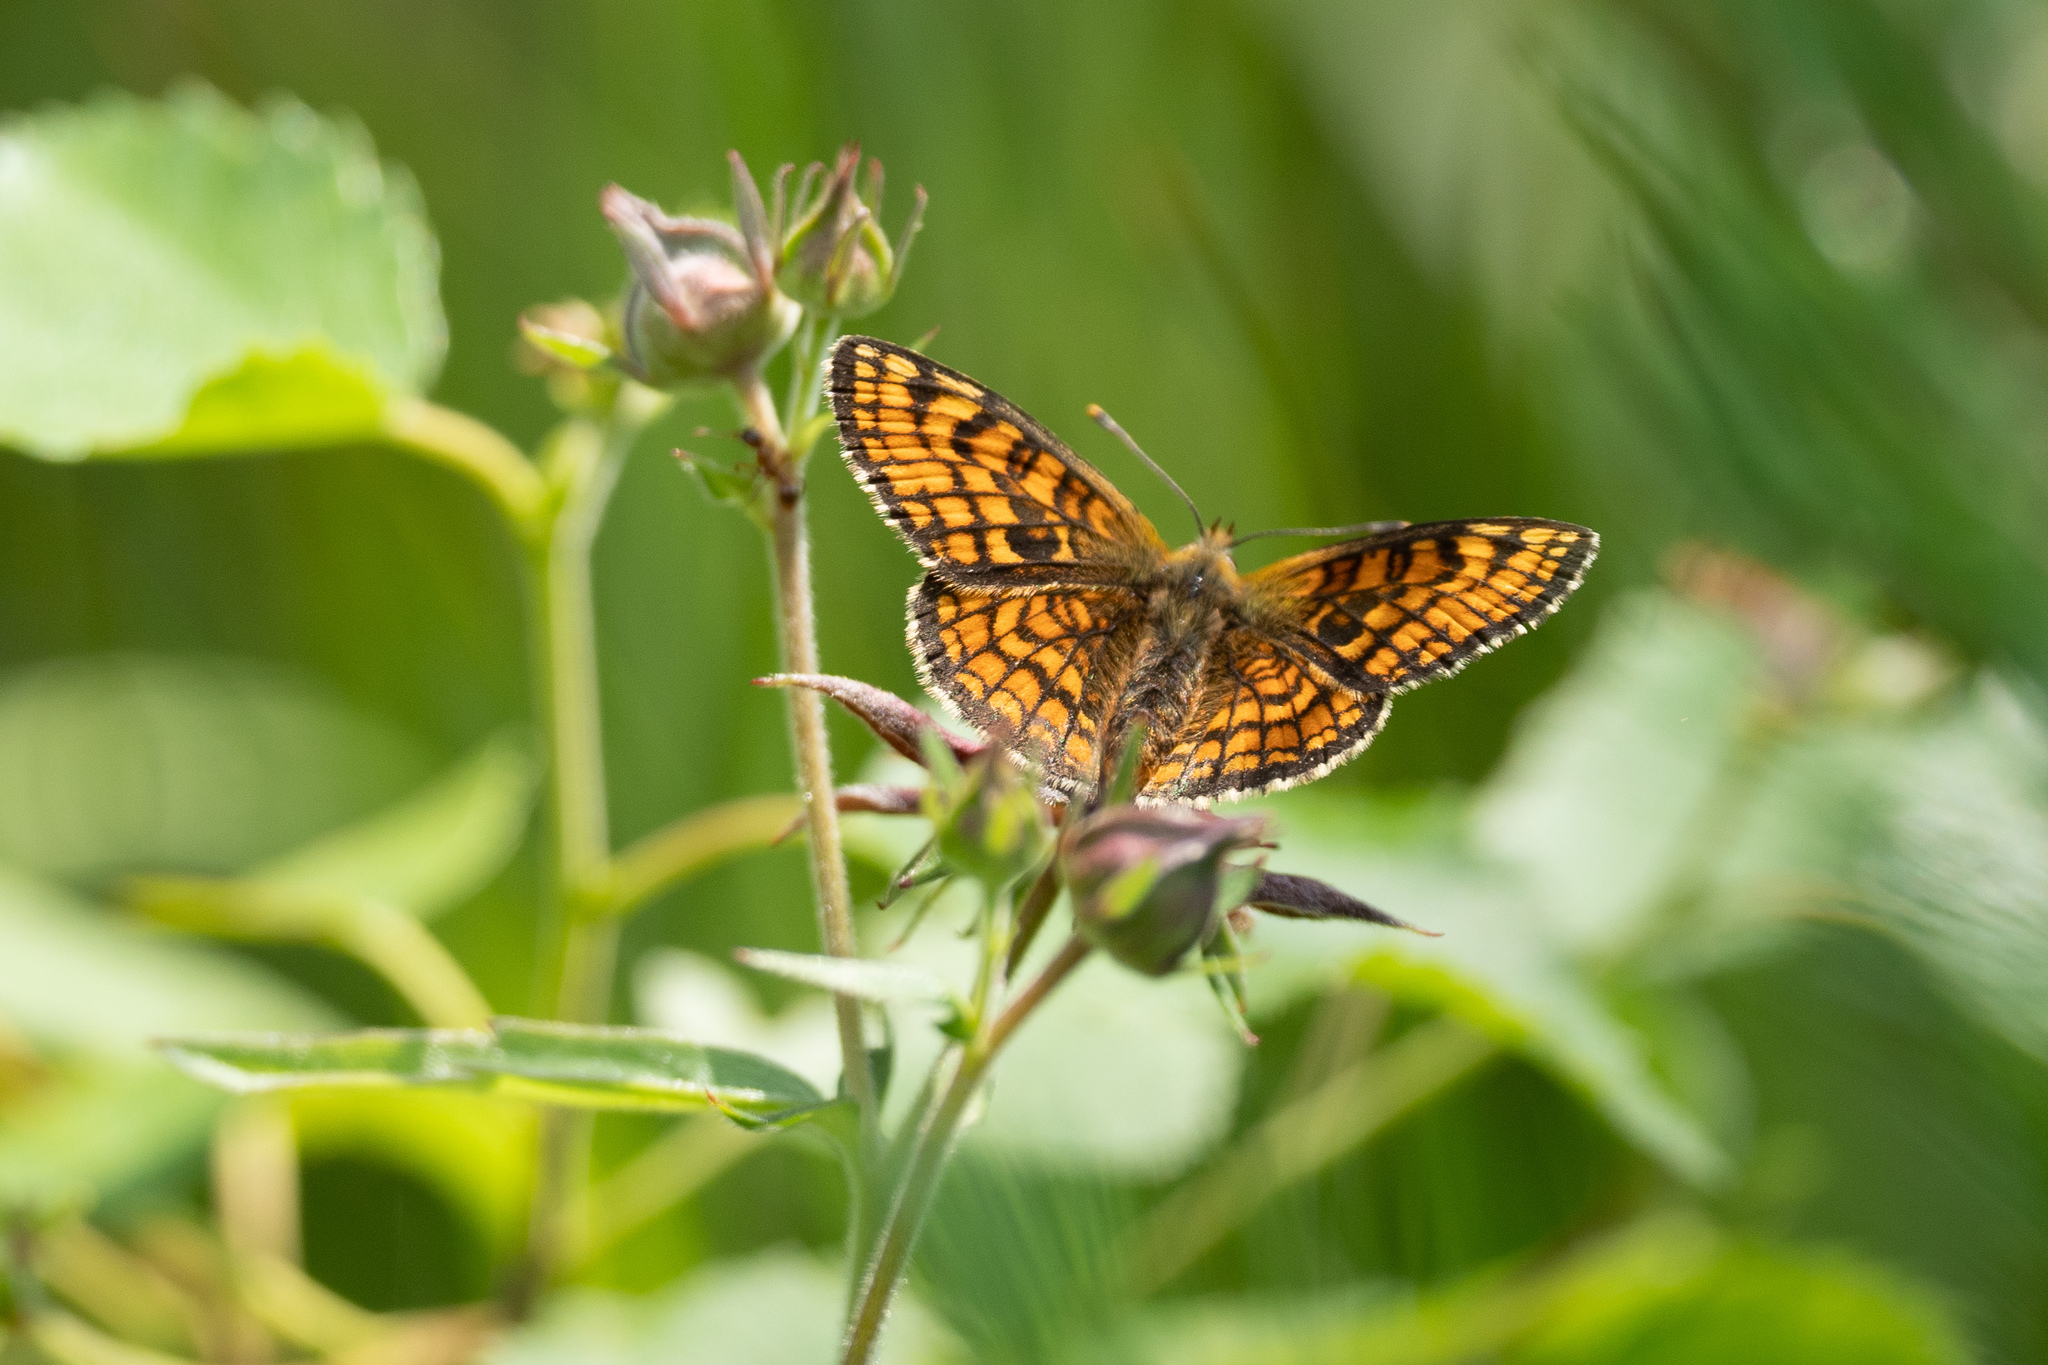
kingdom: Animalia
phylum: Arthropoda
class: Insecta
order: Lepidoptera
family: Nymphalidae
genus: Melitaea
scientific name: Melitaea athalia
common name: Heath fritillary
